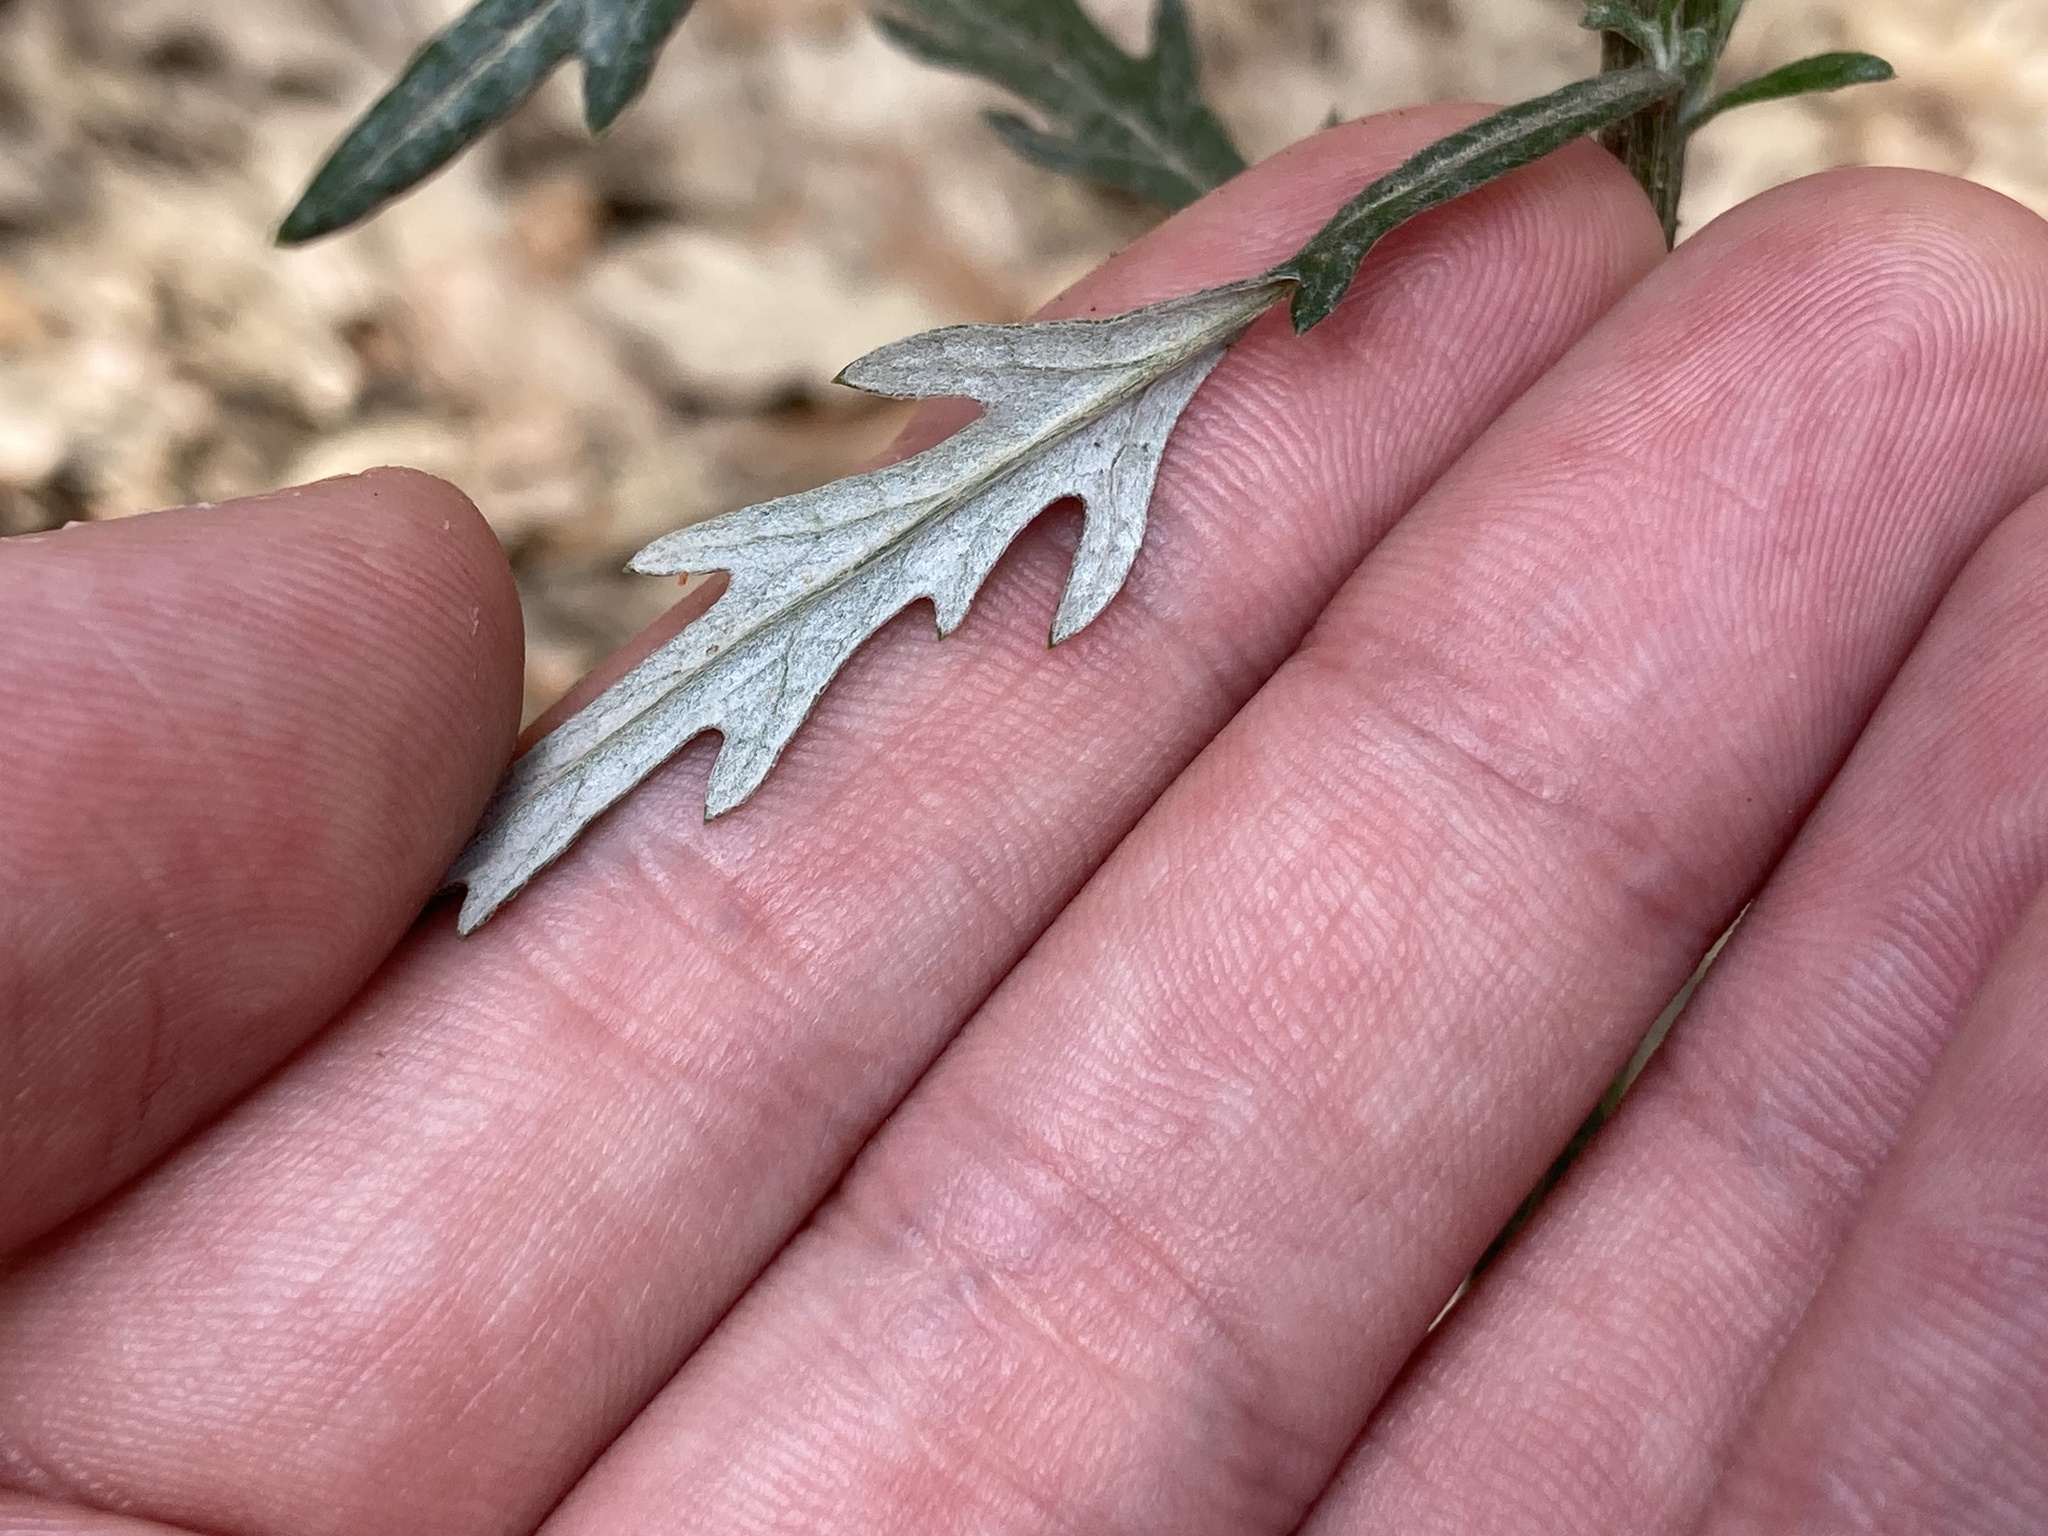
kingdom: Plantae
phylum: Tracheophyta
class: Magnoliopsida
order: Asterales
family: Asteraceae
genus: Senecio
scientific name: Senecio pterophorus
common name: Shoddy ragwort
